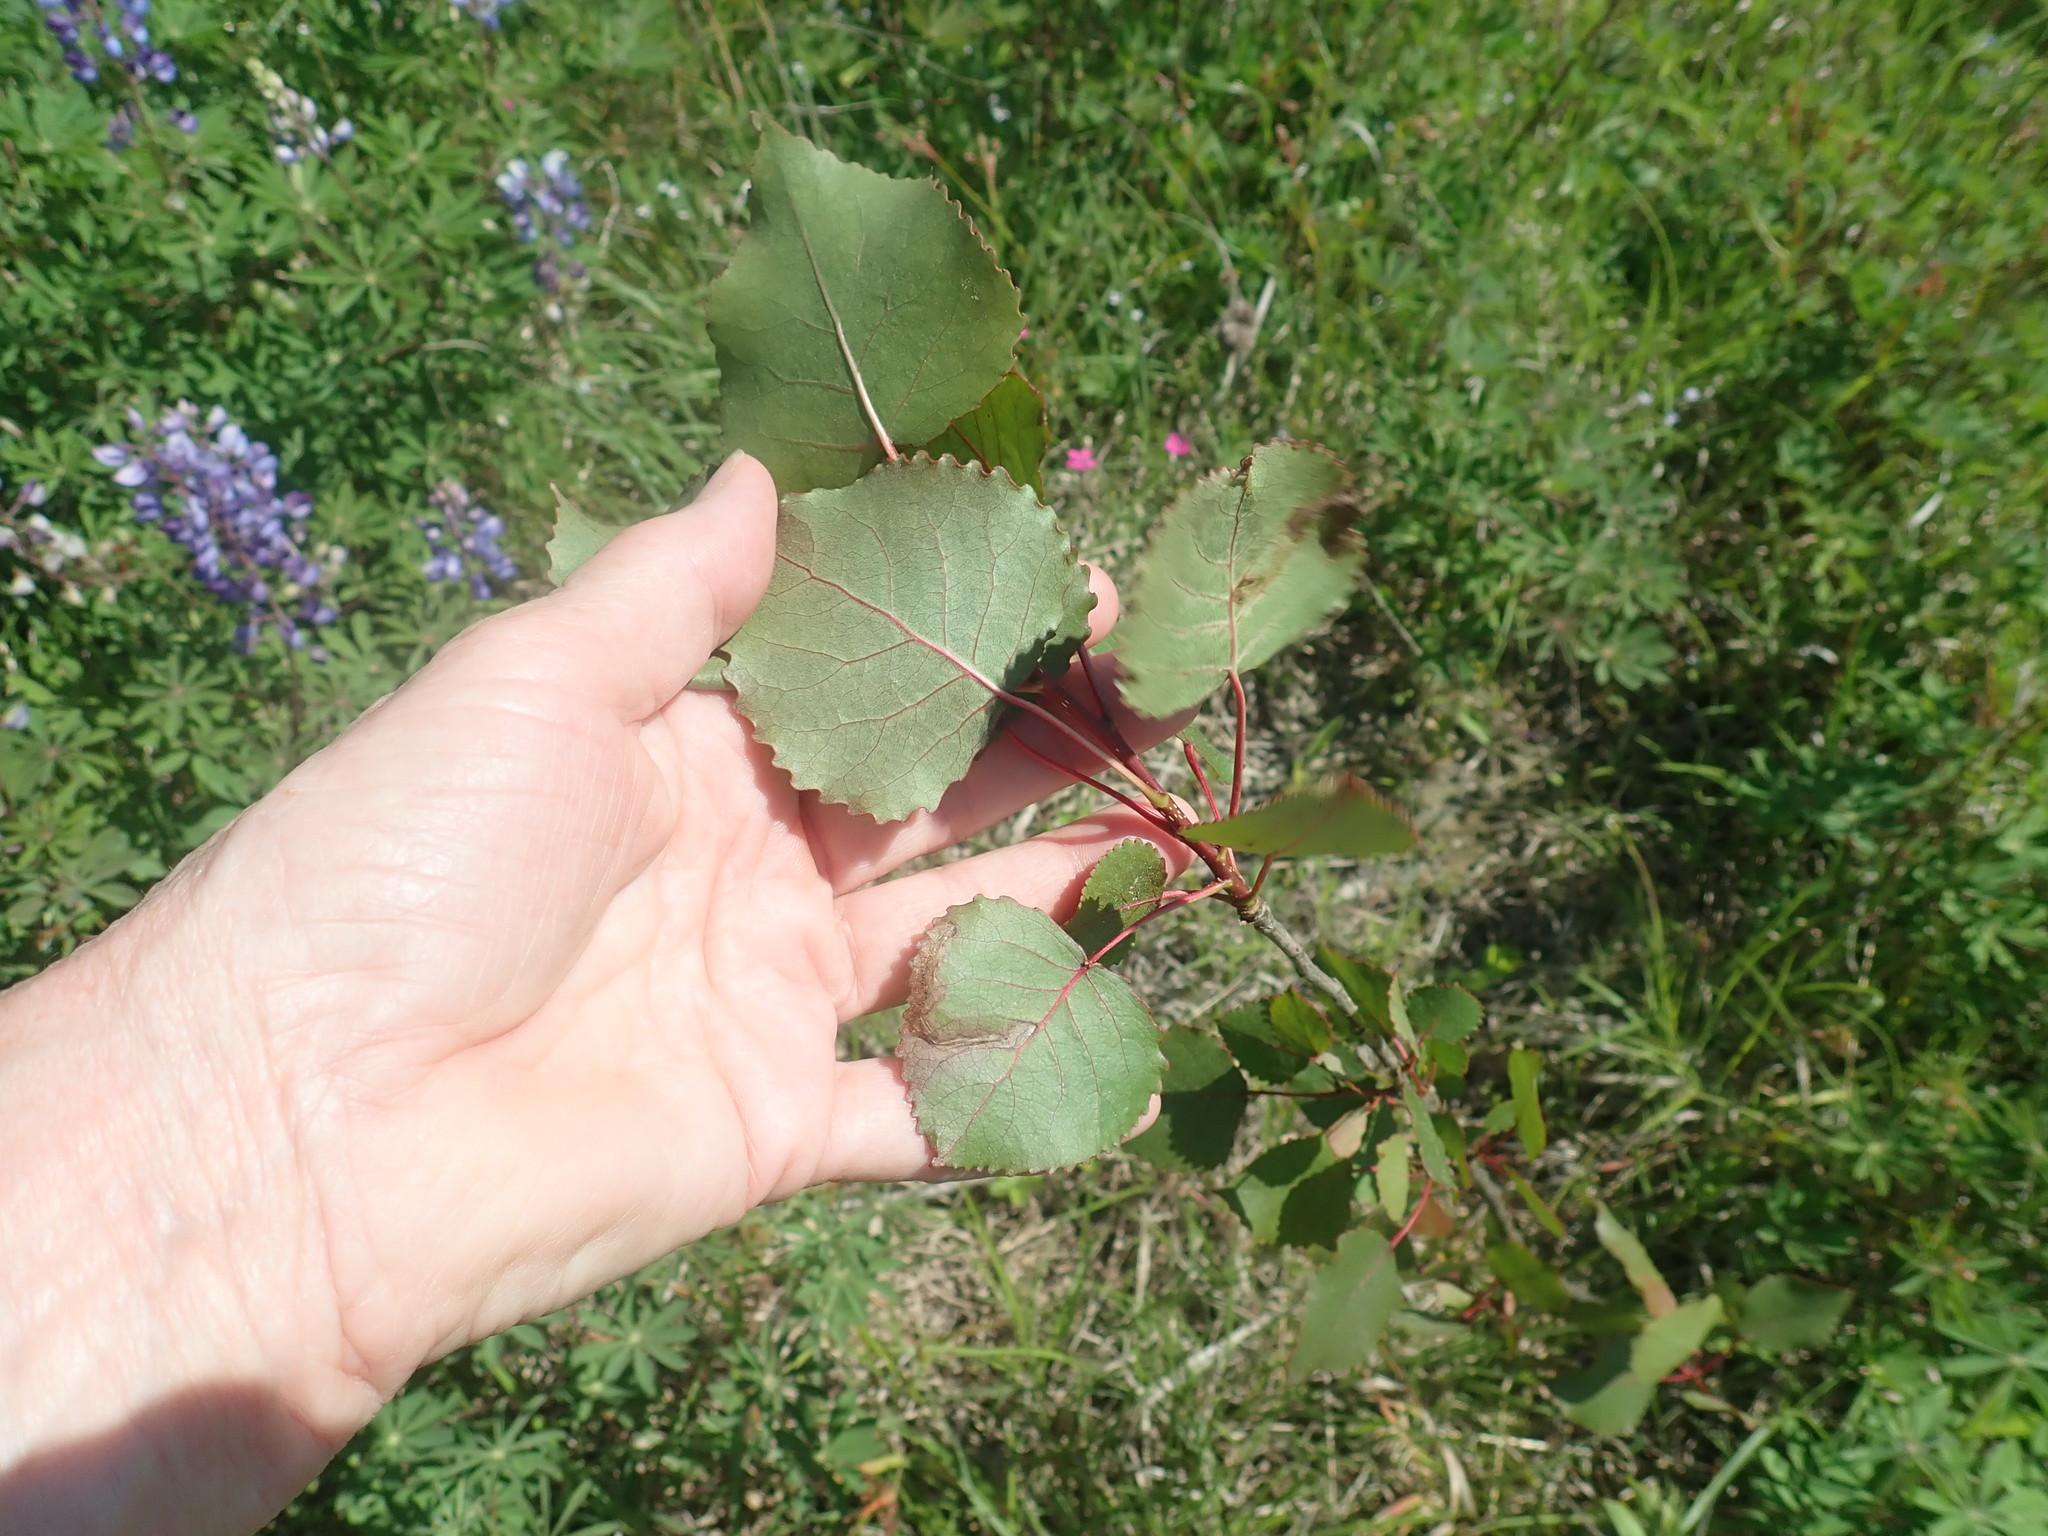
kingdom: Plantae
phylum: Tracheophyta
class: Magnoliopsida
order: Malpighiales
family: Salicaceae
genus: Populus
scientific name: Populus deltoides
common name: Eastern cottonwood
